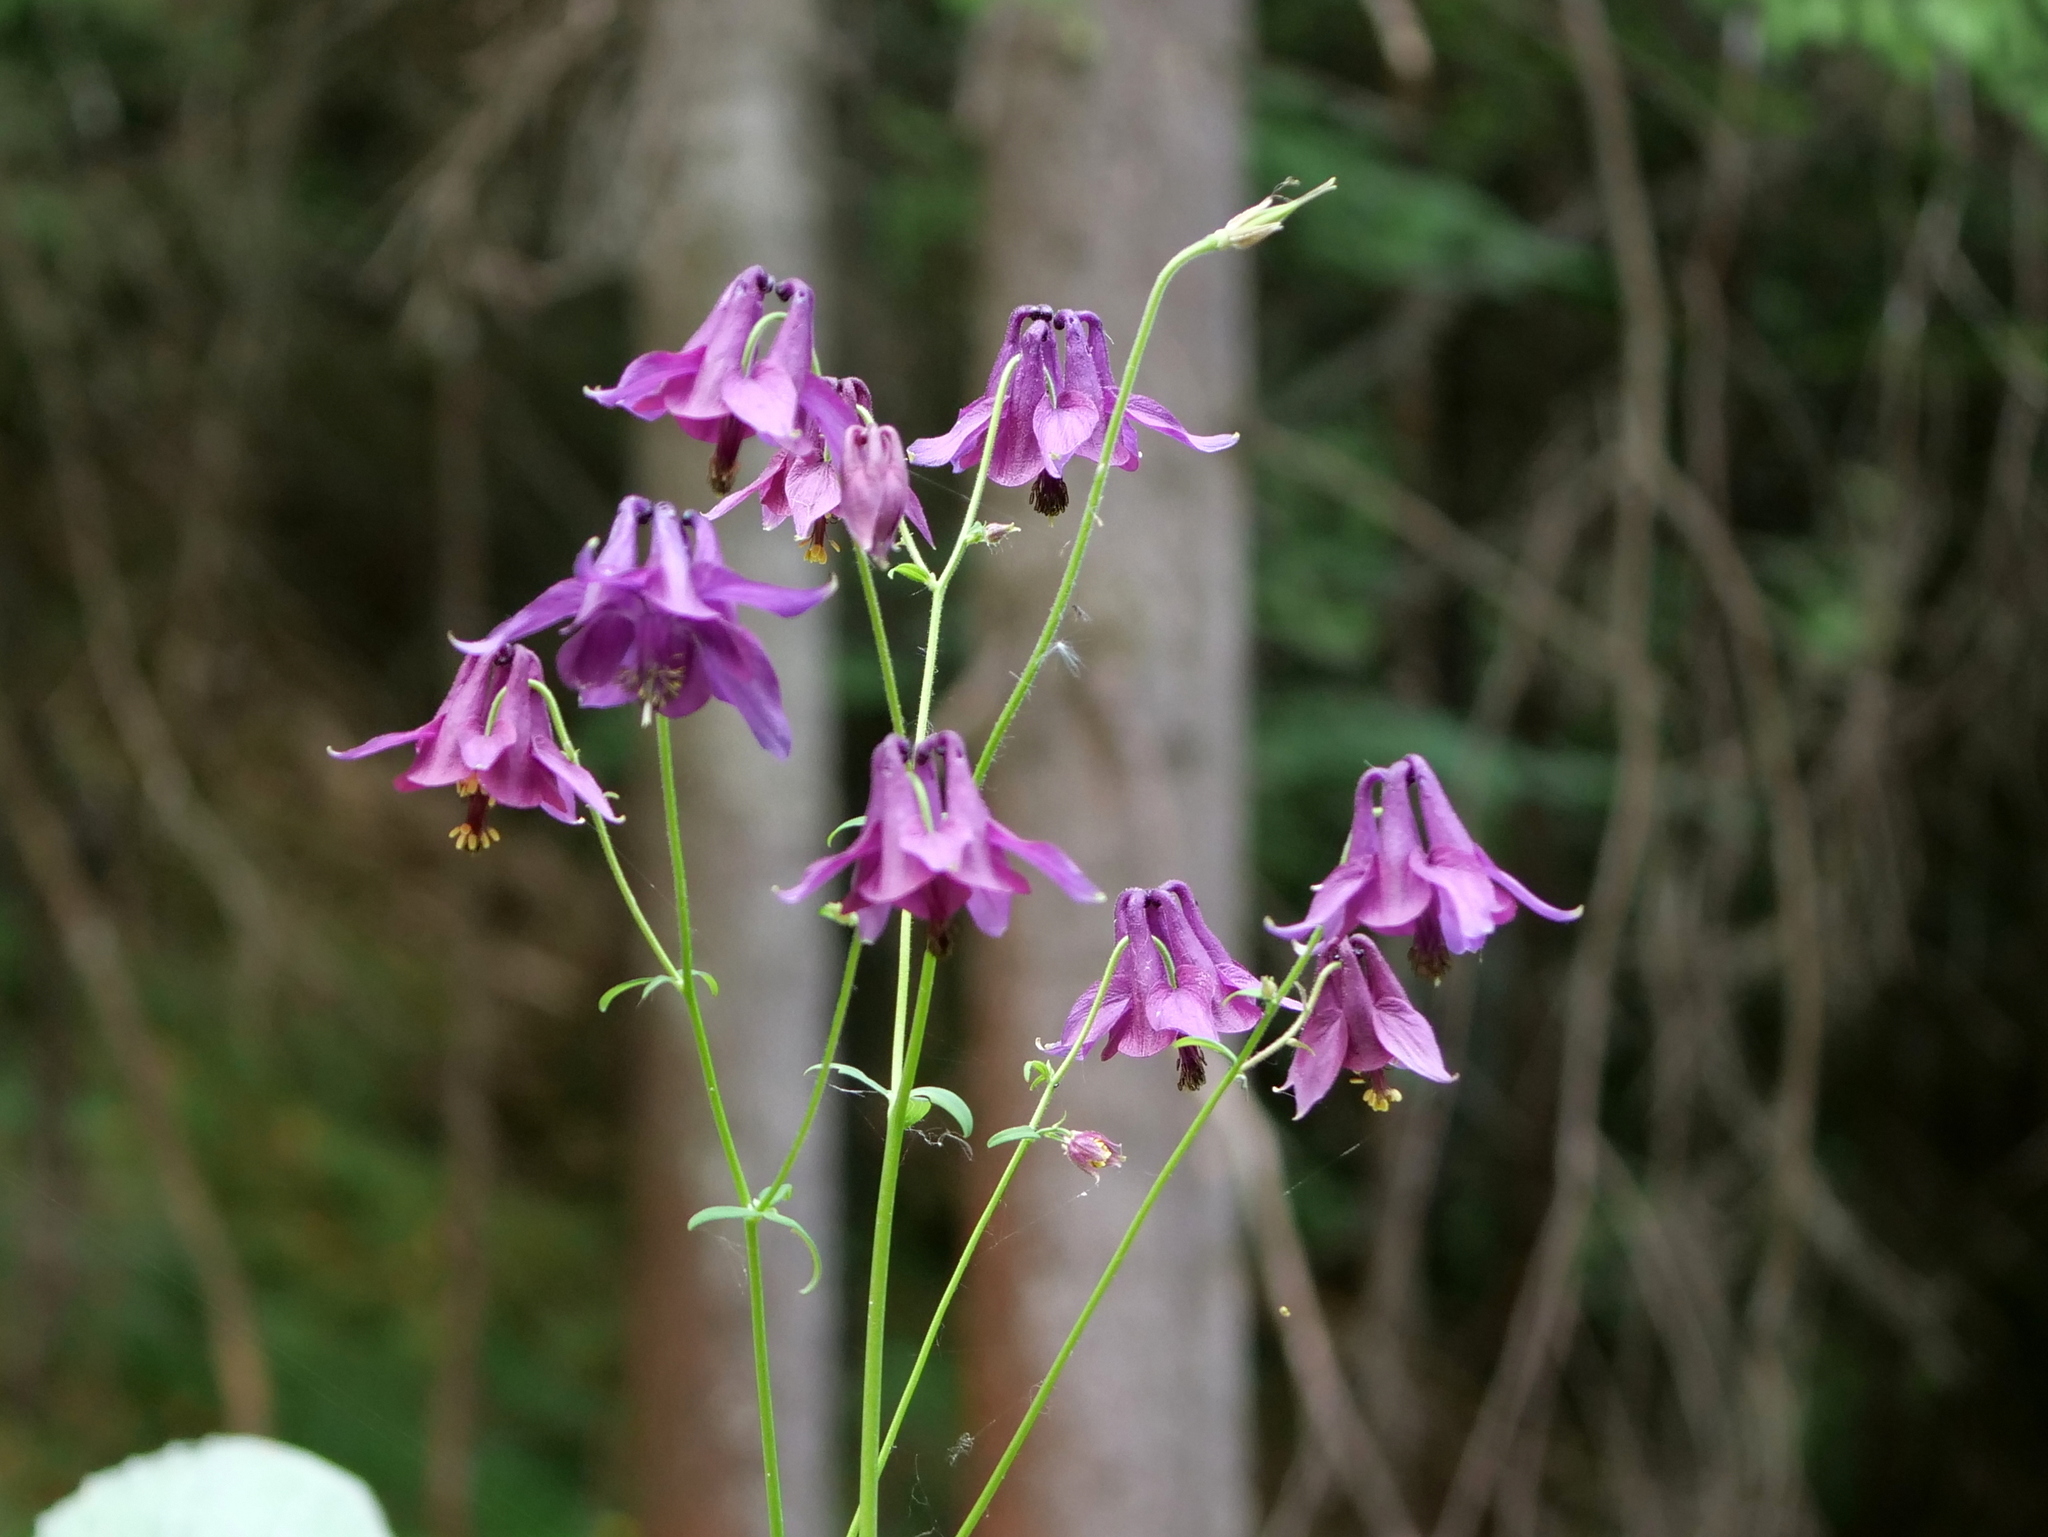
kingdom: Plantae
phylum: Tracheophyta
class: Magnoliopsida
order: Ranunculales
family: Ranunculaceae
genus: Aquilegia
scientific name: Aquilegia atrata
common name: Dark columbine
